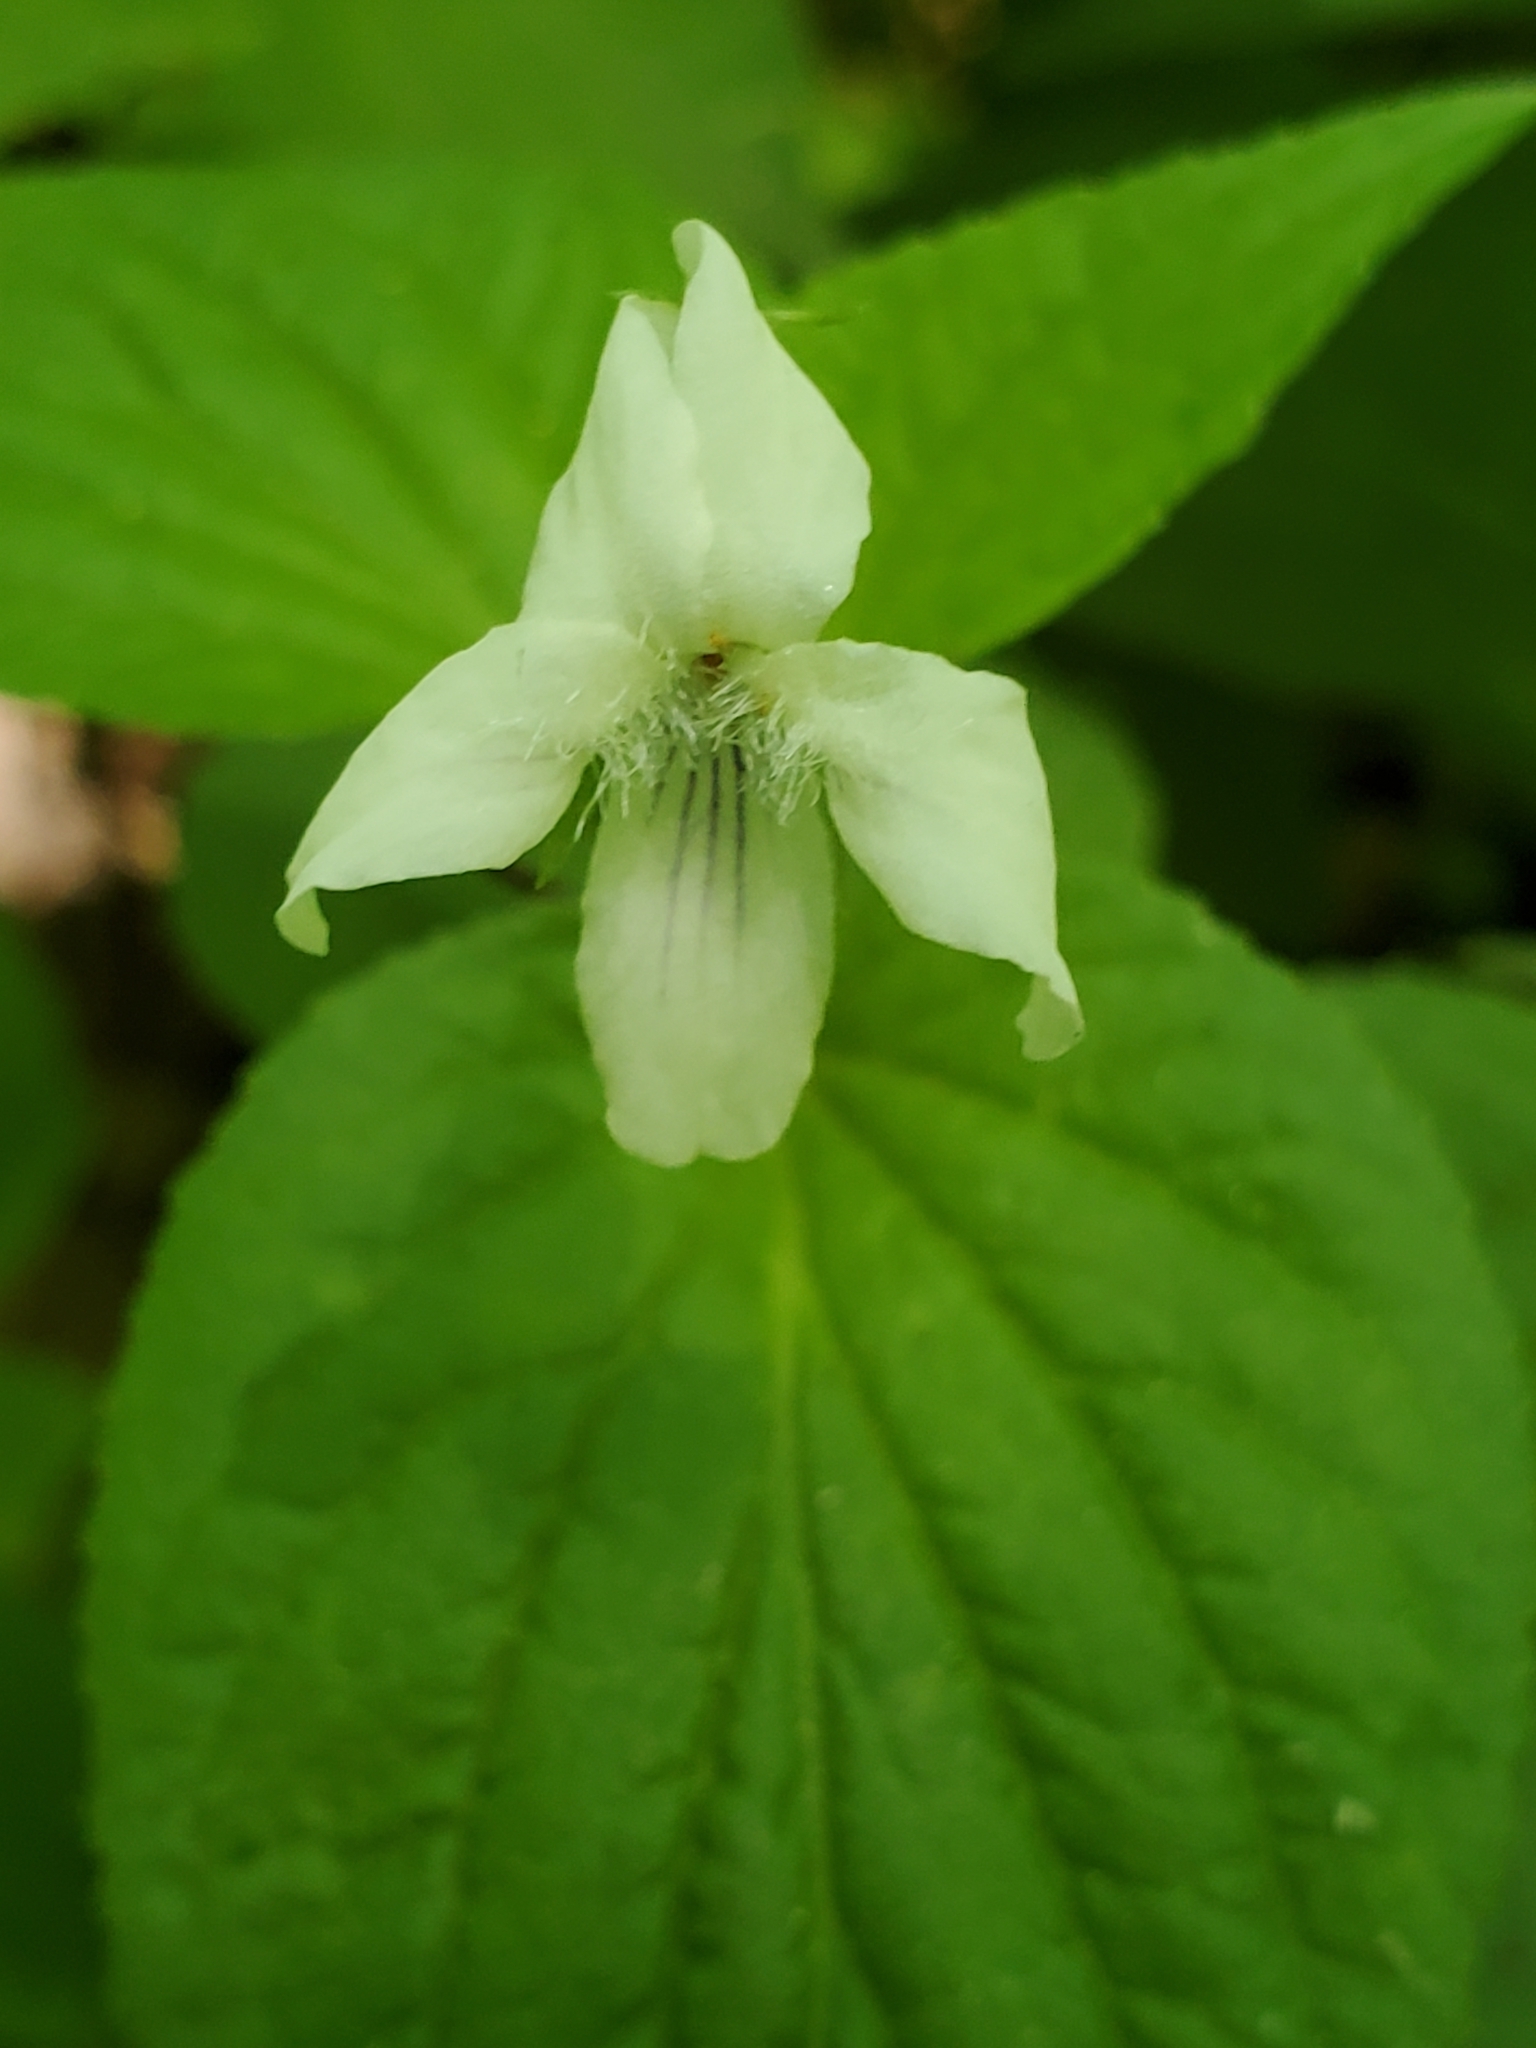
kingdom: Plantae
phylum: Tracheophyta
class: Magnoliopsida
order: Malpighiales
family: Violaceae
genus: Viola
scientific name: Viola striata
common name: Cream violet
